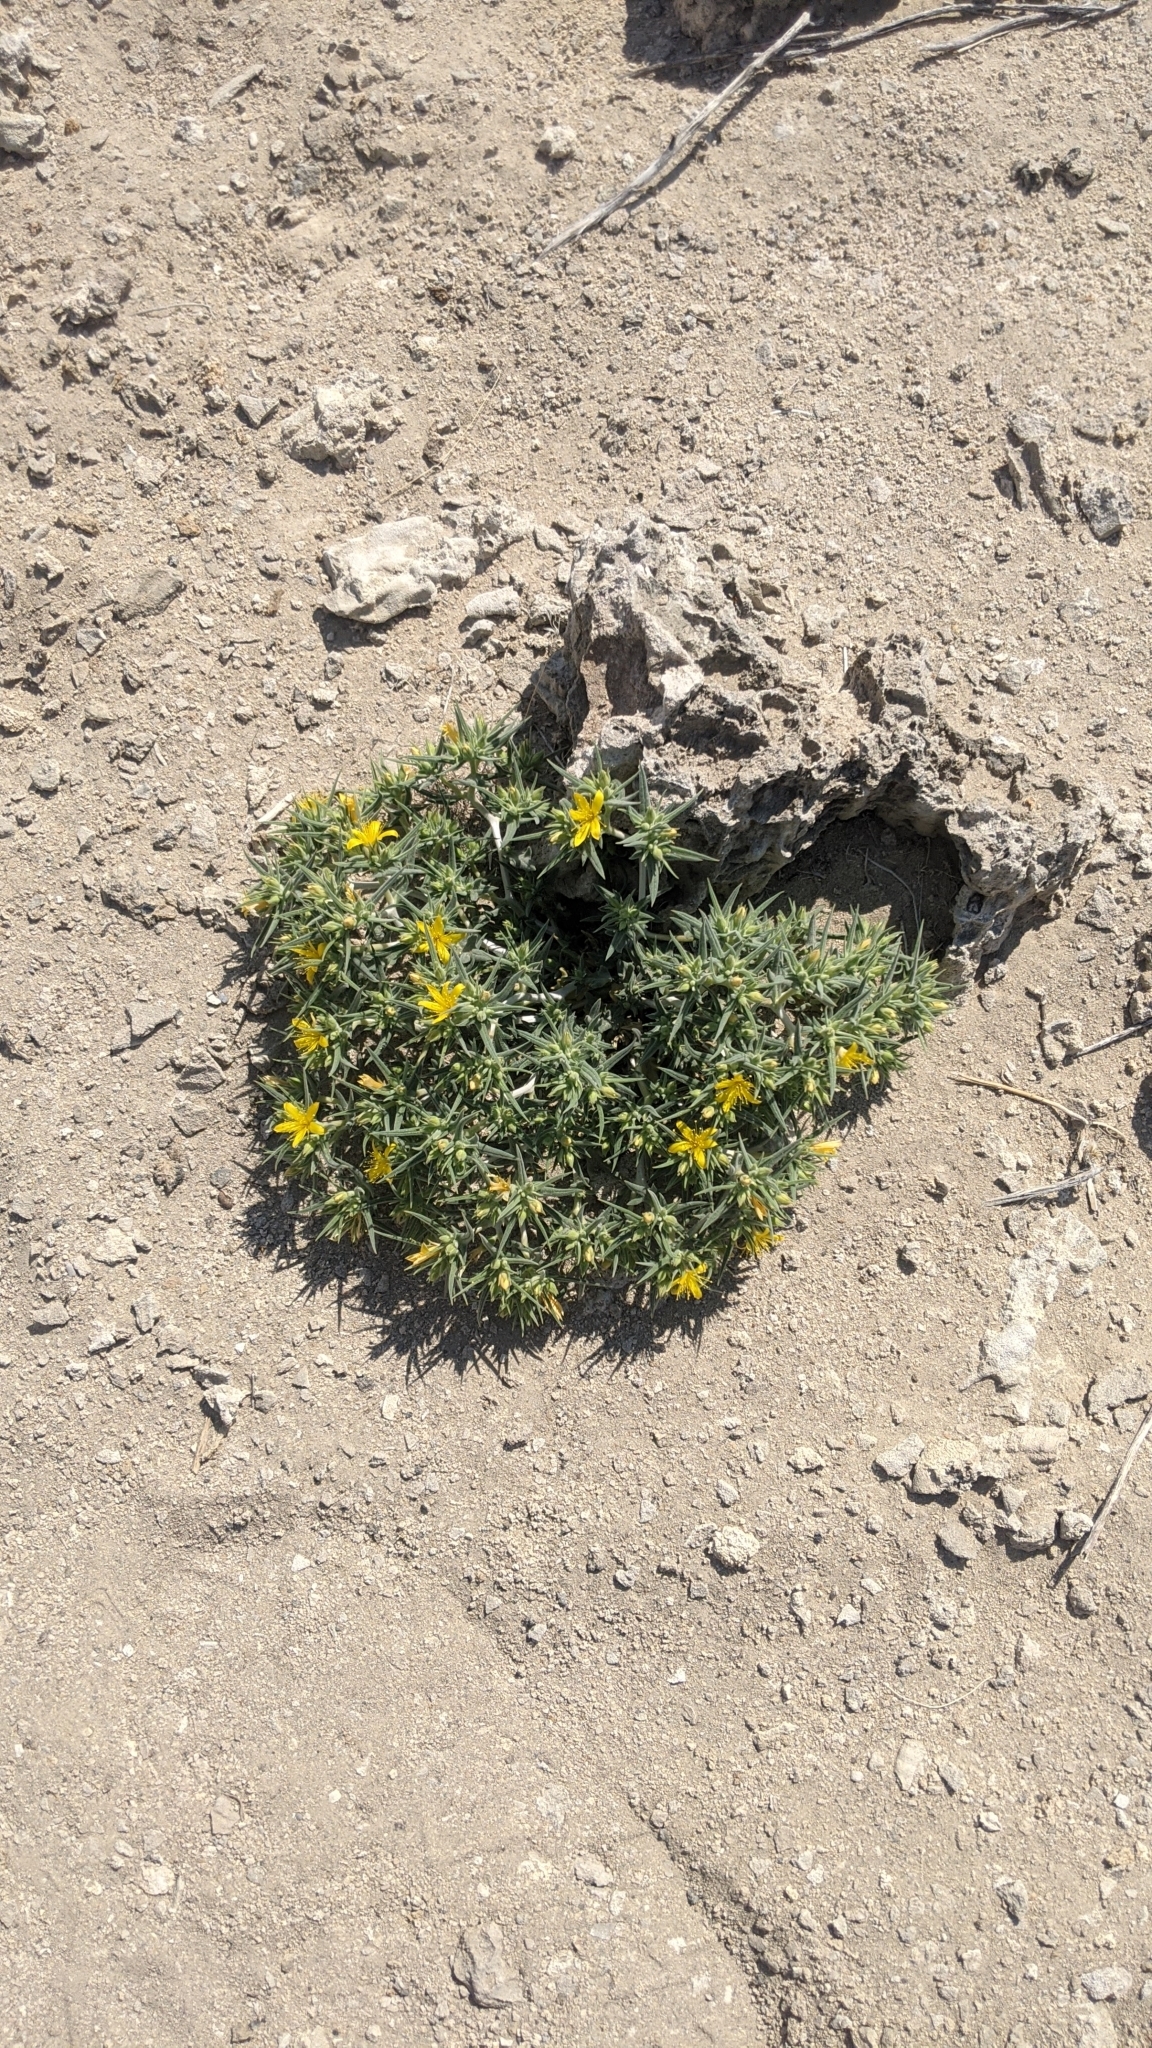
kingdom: Plantae
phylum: Tracheophyta
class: Magnoliopsida
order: Cornales
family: Loasaceae
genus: Mentzelia
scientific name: Mentzelia torreyi
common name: Torrey's blazingstar
